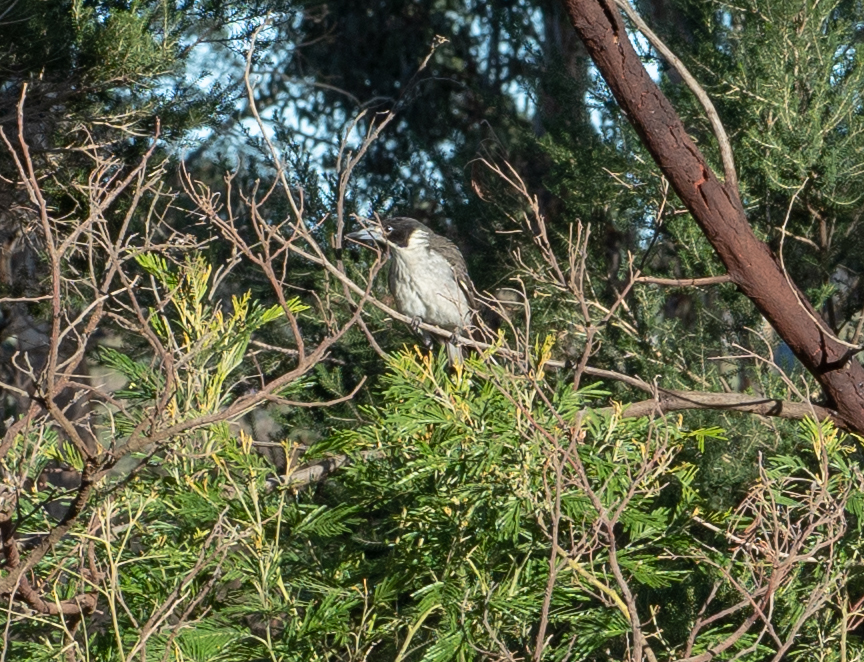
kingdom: Animalia
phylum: Chordata
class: Aves
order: Passeriformes
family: Cracticidae
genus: Cracticus
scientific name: Cracticus torquatus
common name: Grey butcherbird
